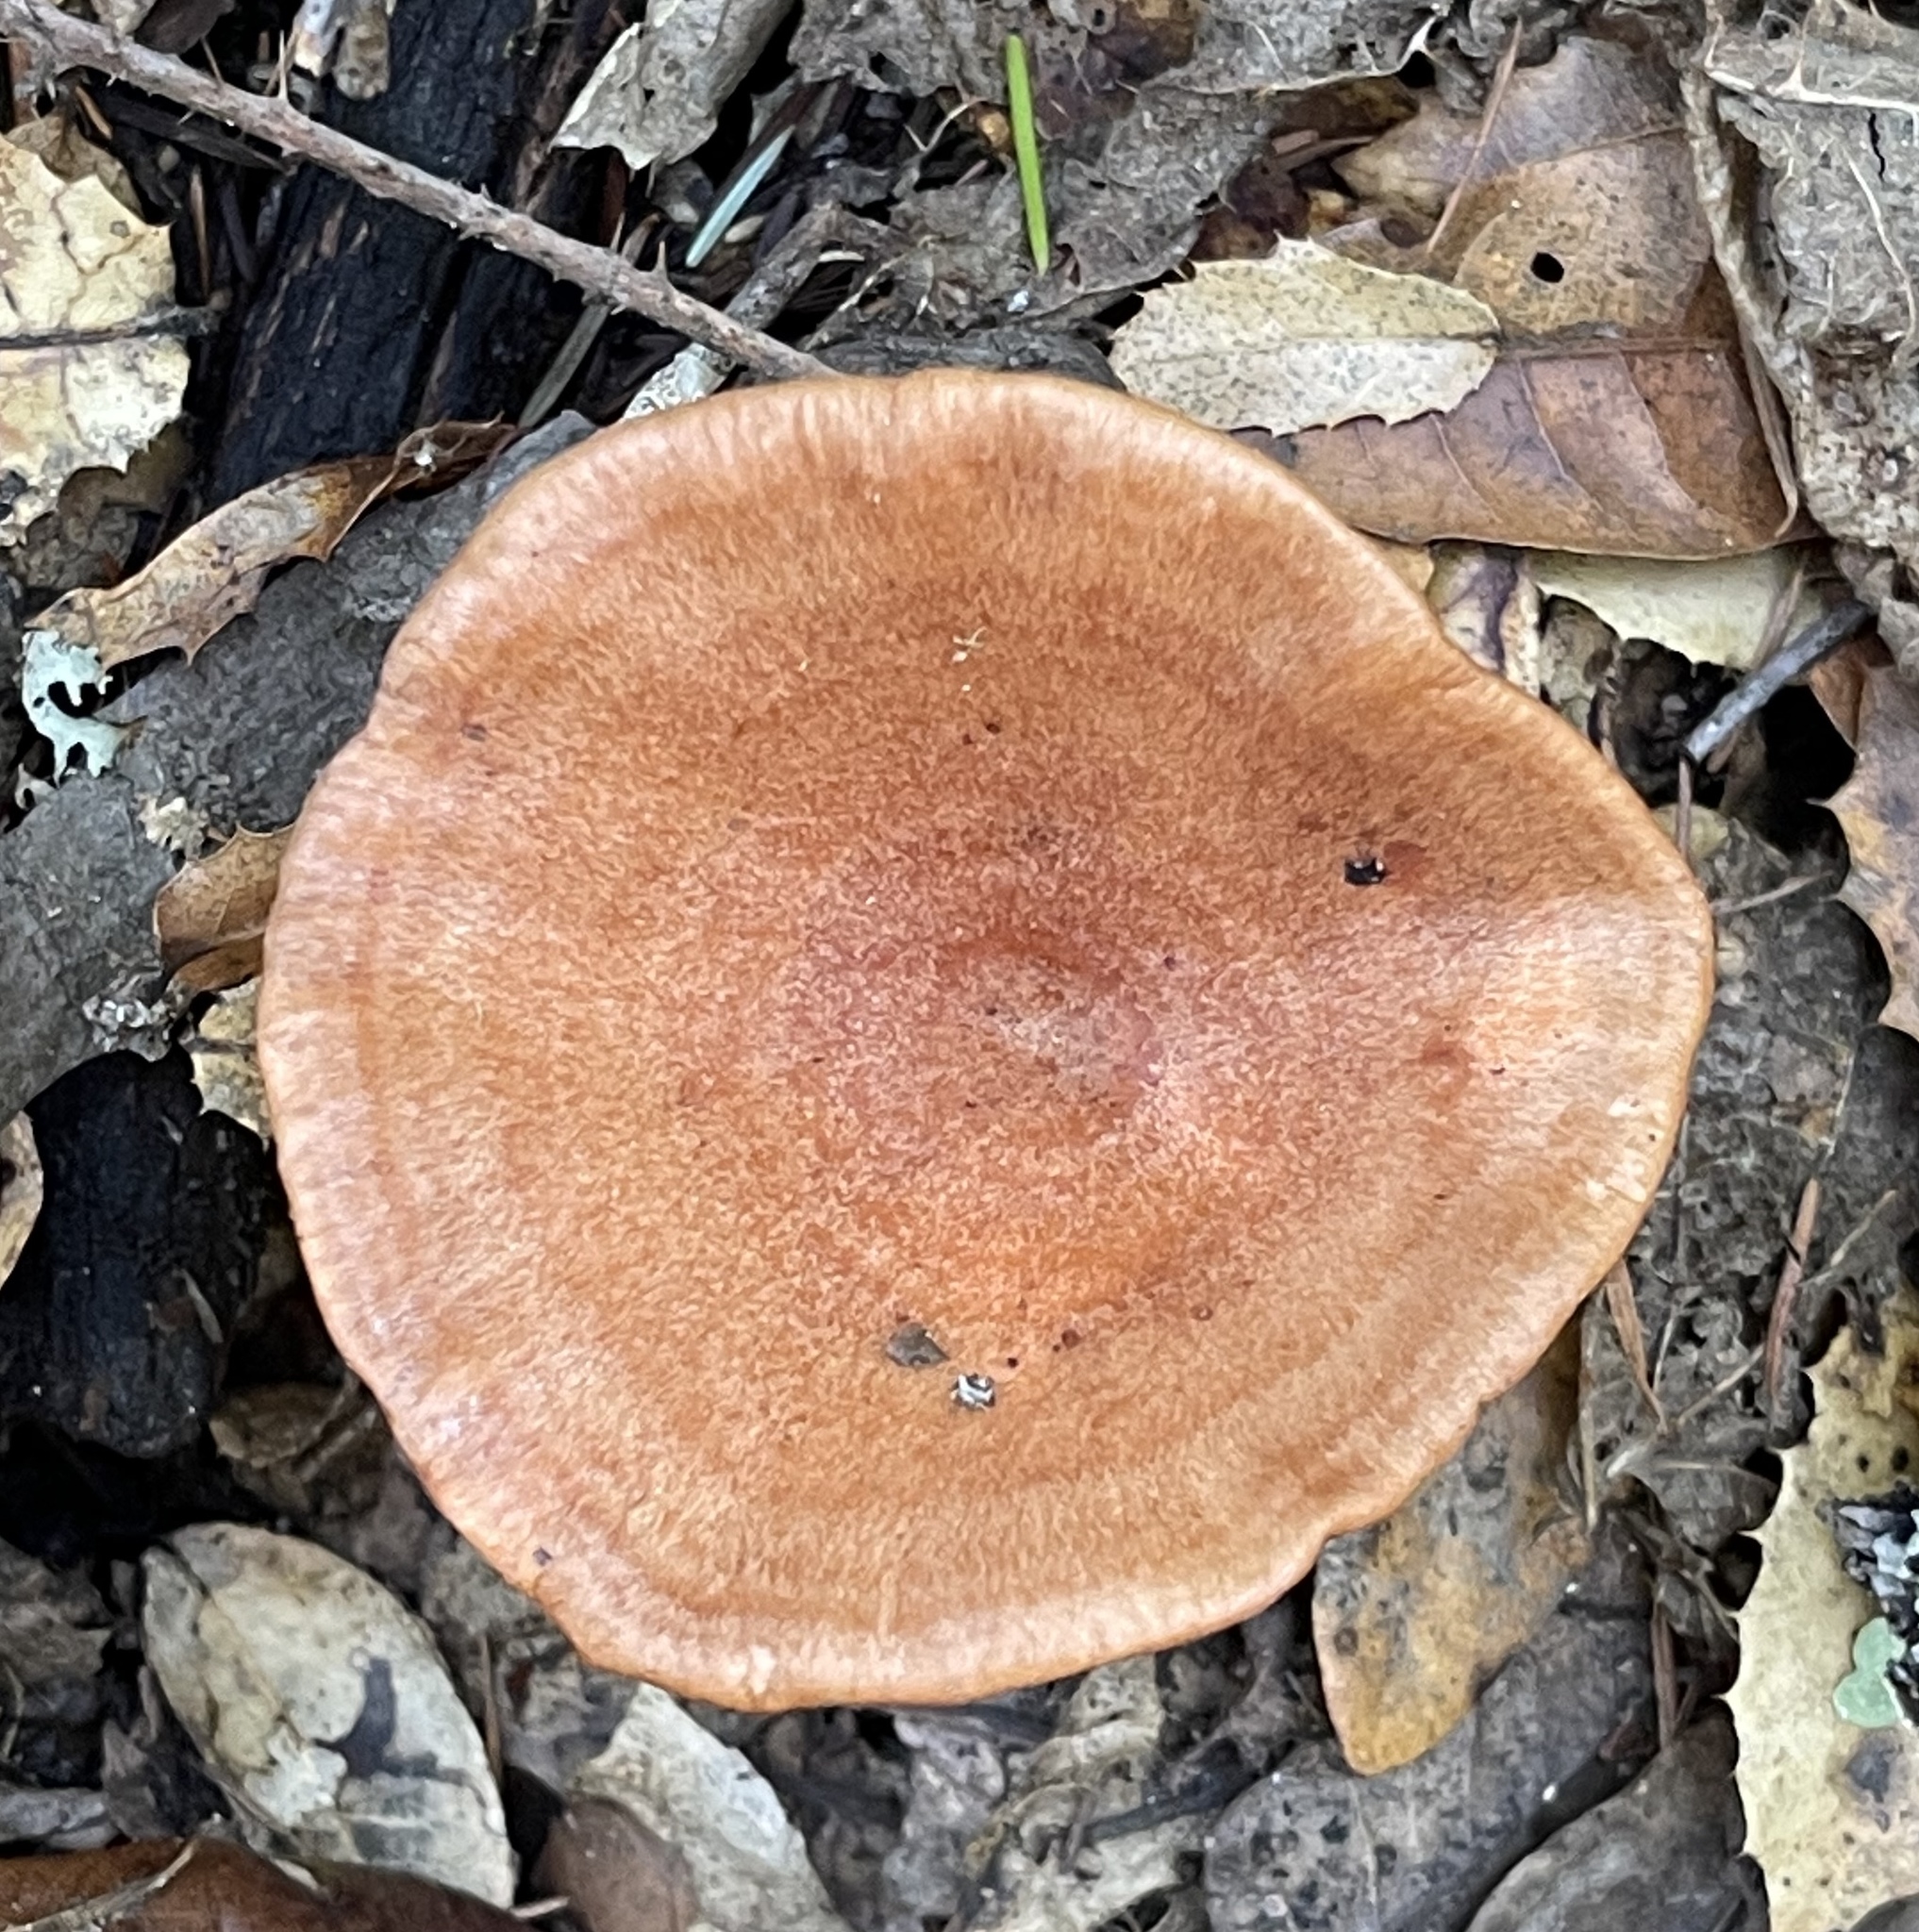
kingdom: Fungi
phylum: Basidiomycota
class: Agaricomycetes
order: Russulales
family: Russulaceae
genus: Lactarius
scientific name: Lactarius xanthogalactus
